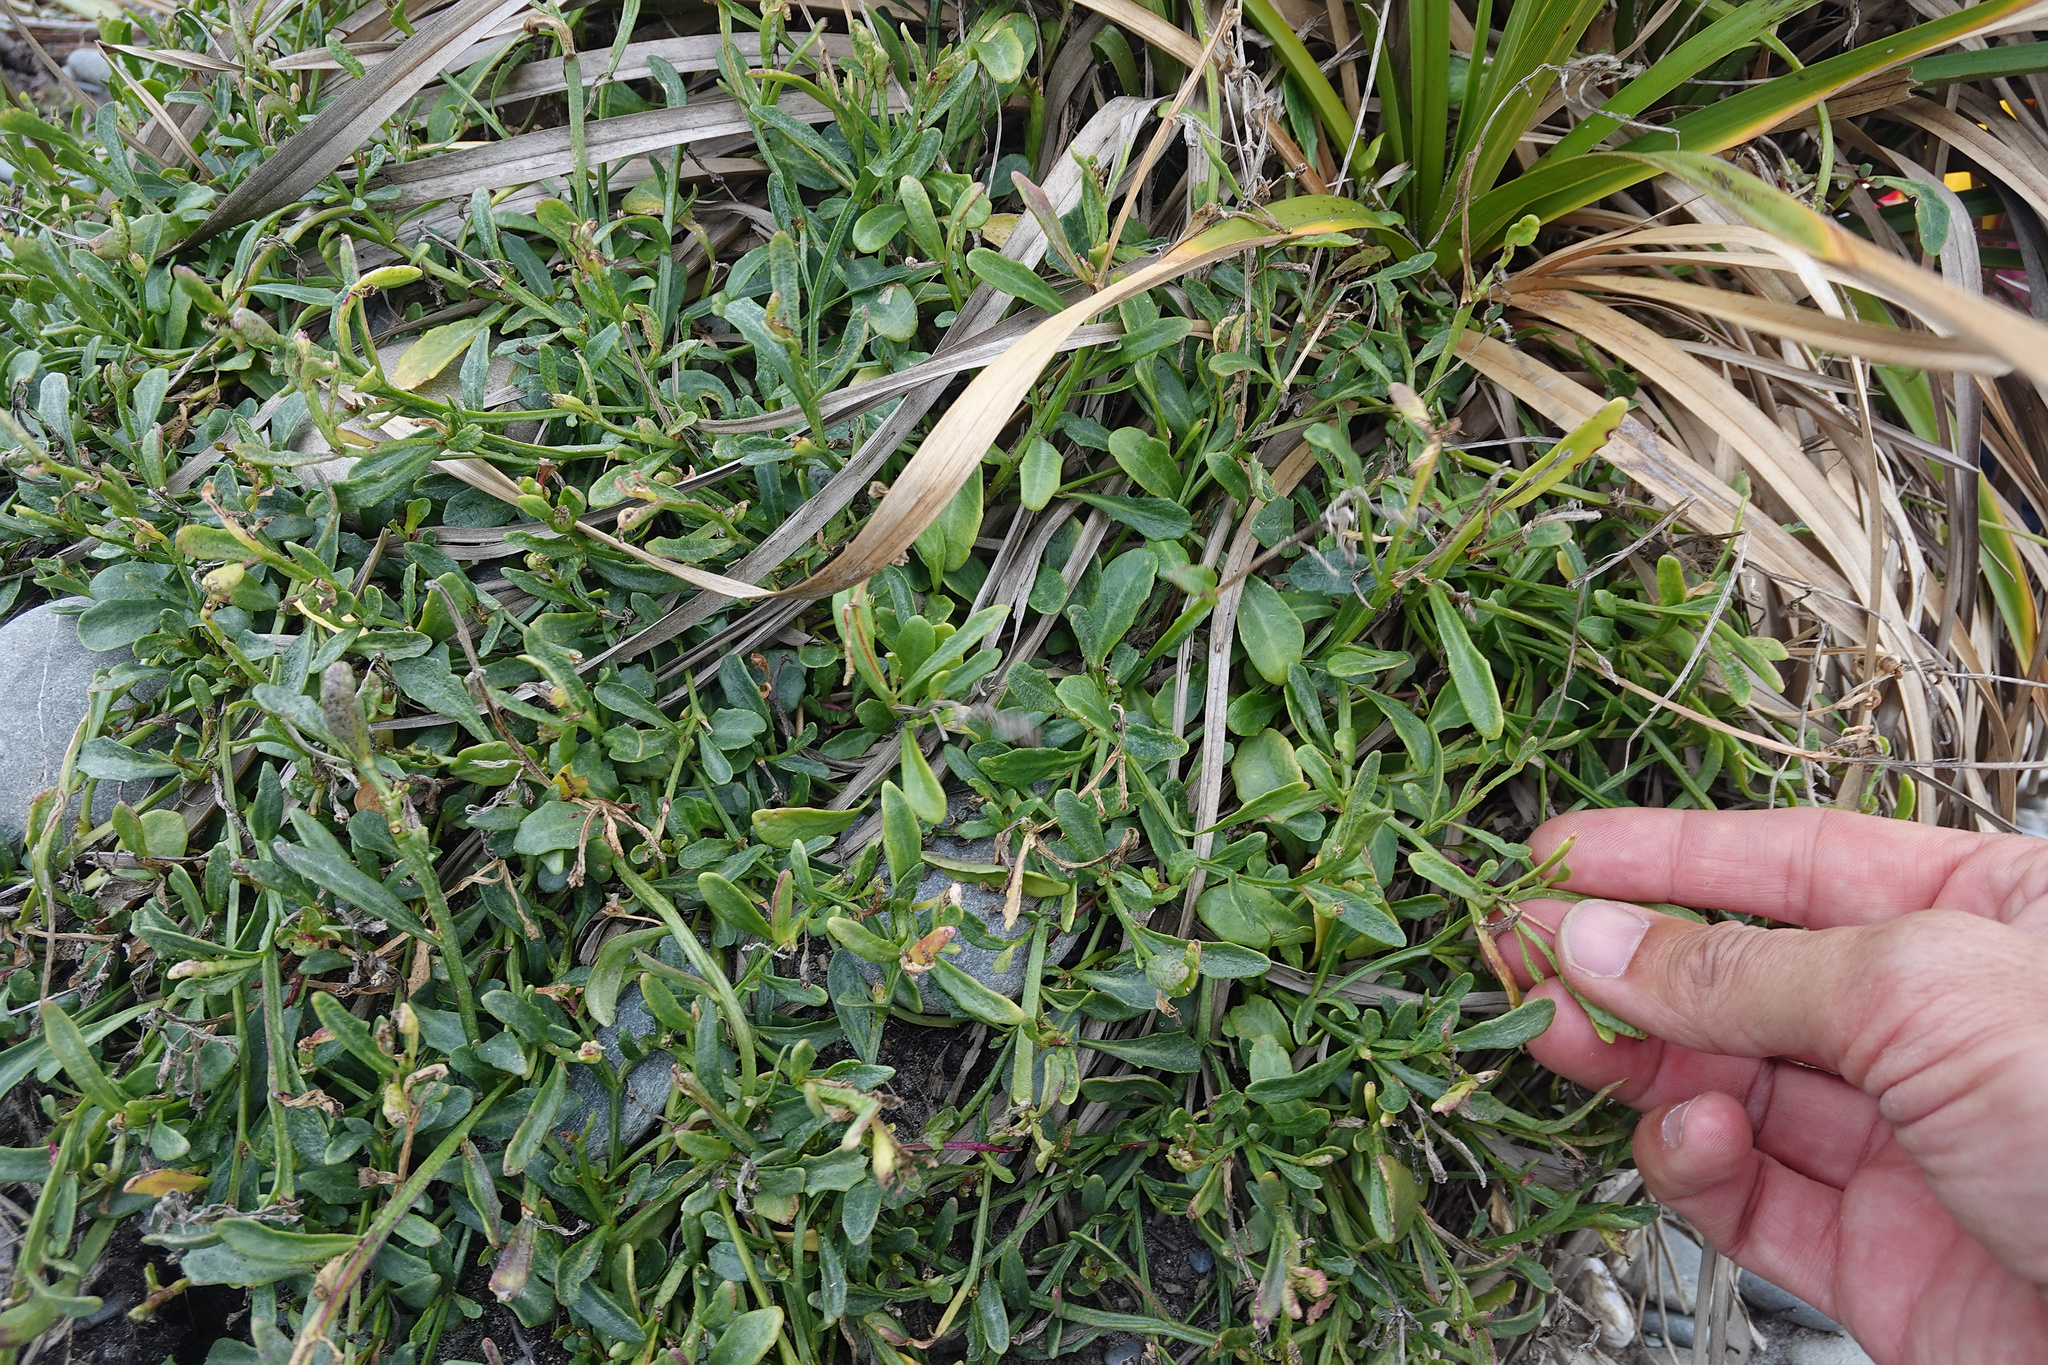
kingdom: Plantae
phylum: Tracheophyta
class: Magnoliopsida
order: Asterales
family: Campanulaceae
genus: Lobelia
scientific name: Lobelia anceps
